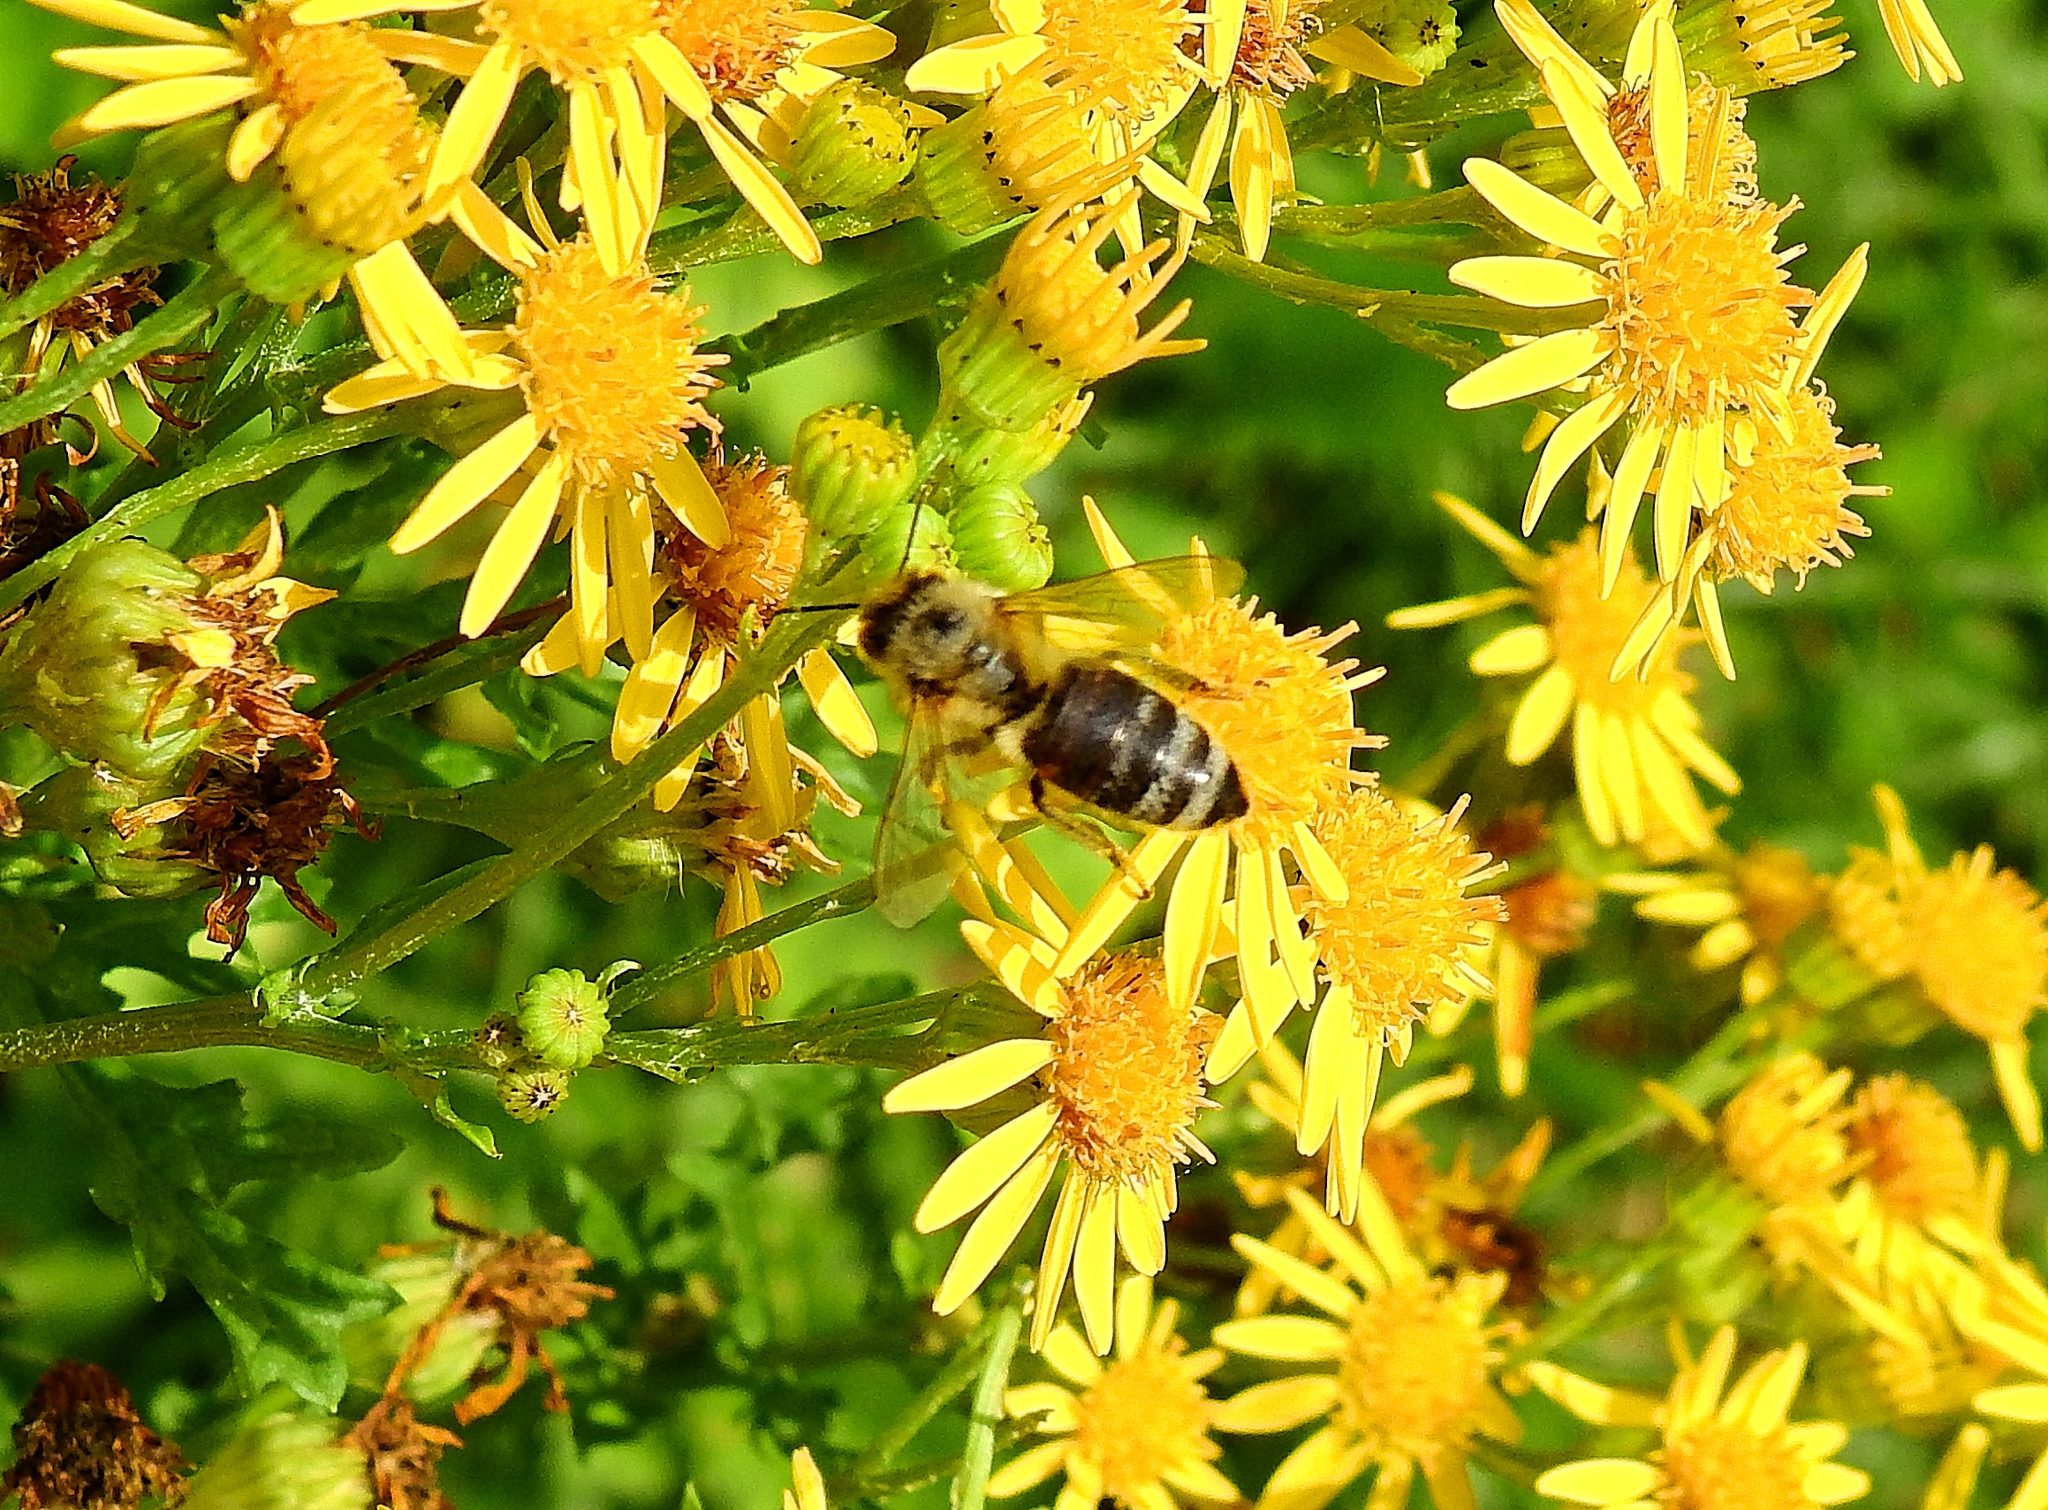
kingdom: Animalia
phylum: Arthropoda
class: Insecta
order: Hymenoptera
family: Apidae
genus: Apis
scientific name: Apis mellifera
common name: Honey bee
